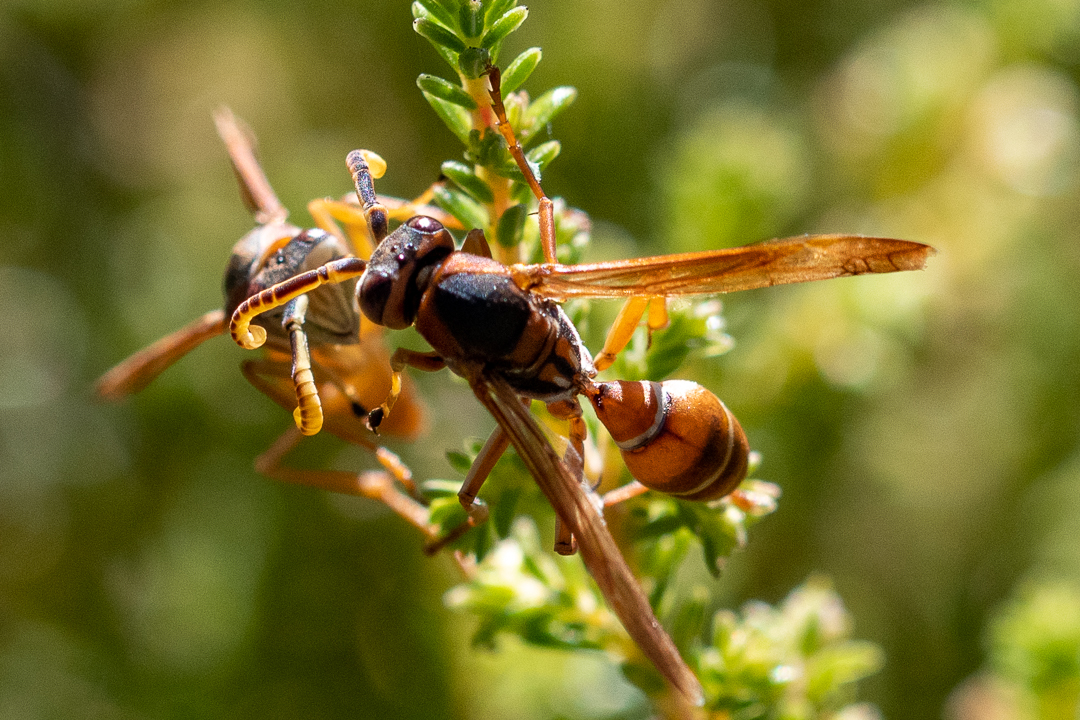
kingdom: Animalia
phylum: Arthropoda
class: Insecta
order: Hymenoptera
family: Eumenidae
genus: Polistes
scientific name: Polistes marginalis
